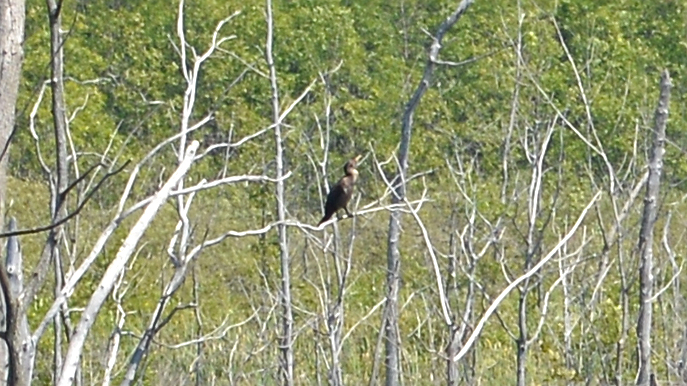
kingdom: Animalia
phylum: Chordata
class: Aves
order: Suliformes
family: Phalacrocoracidae
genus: Phalacrocorax
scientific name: Phalacrocorax auritus
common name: Double-crested cormorant
